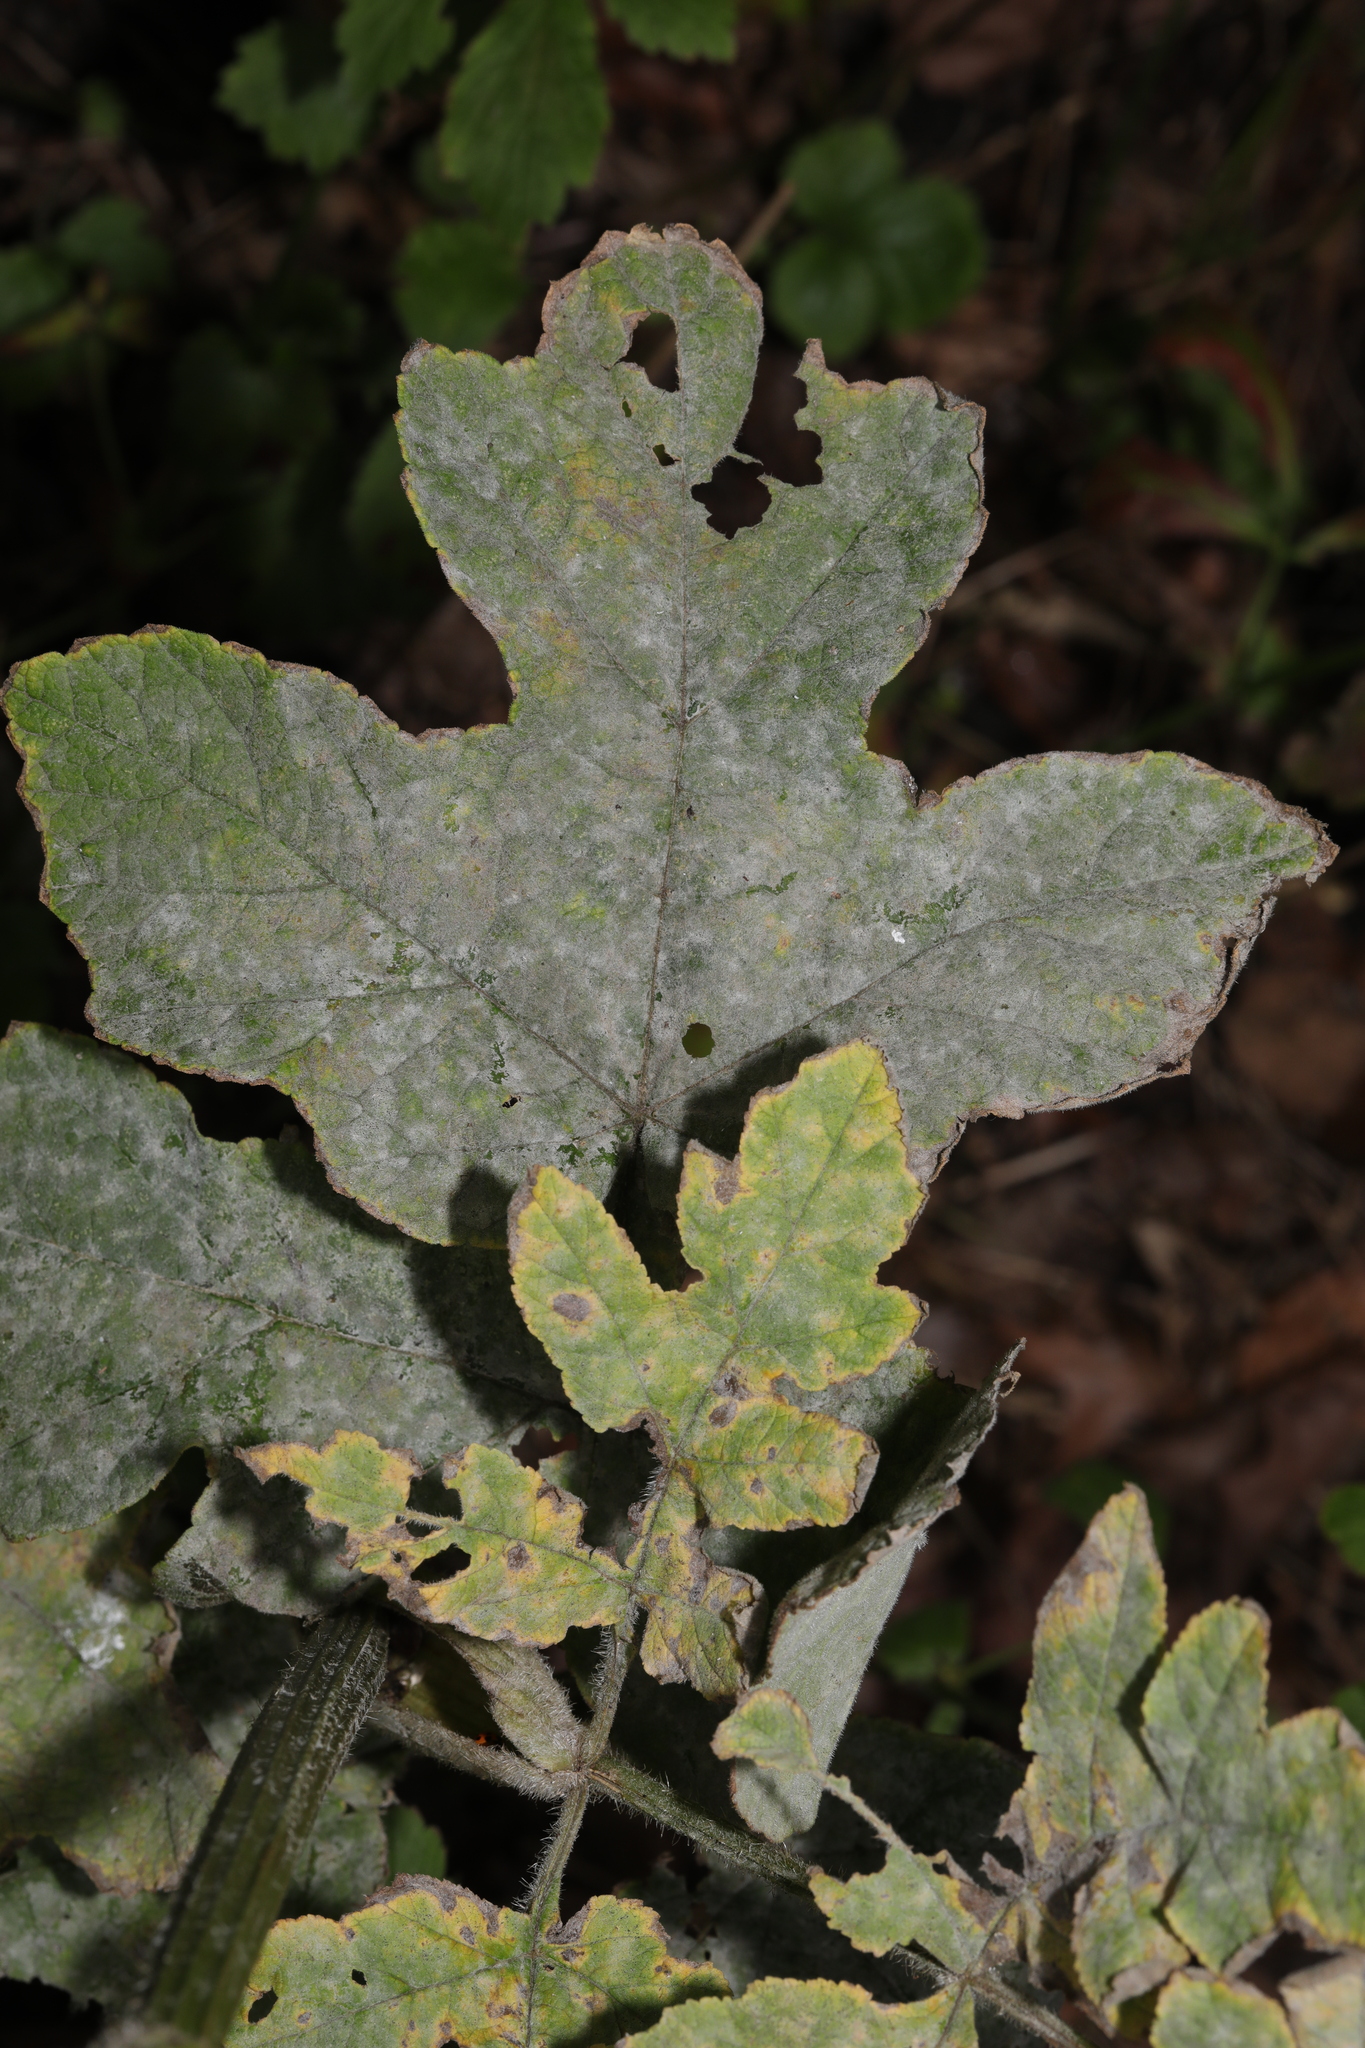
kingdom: Plantae
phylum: Tracheophyta
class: Magnoliopsida
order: Apiales
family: Apiaceae
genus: Heracleum
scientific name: Heracleum sphondylium
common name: Hogweed
